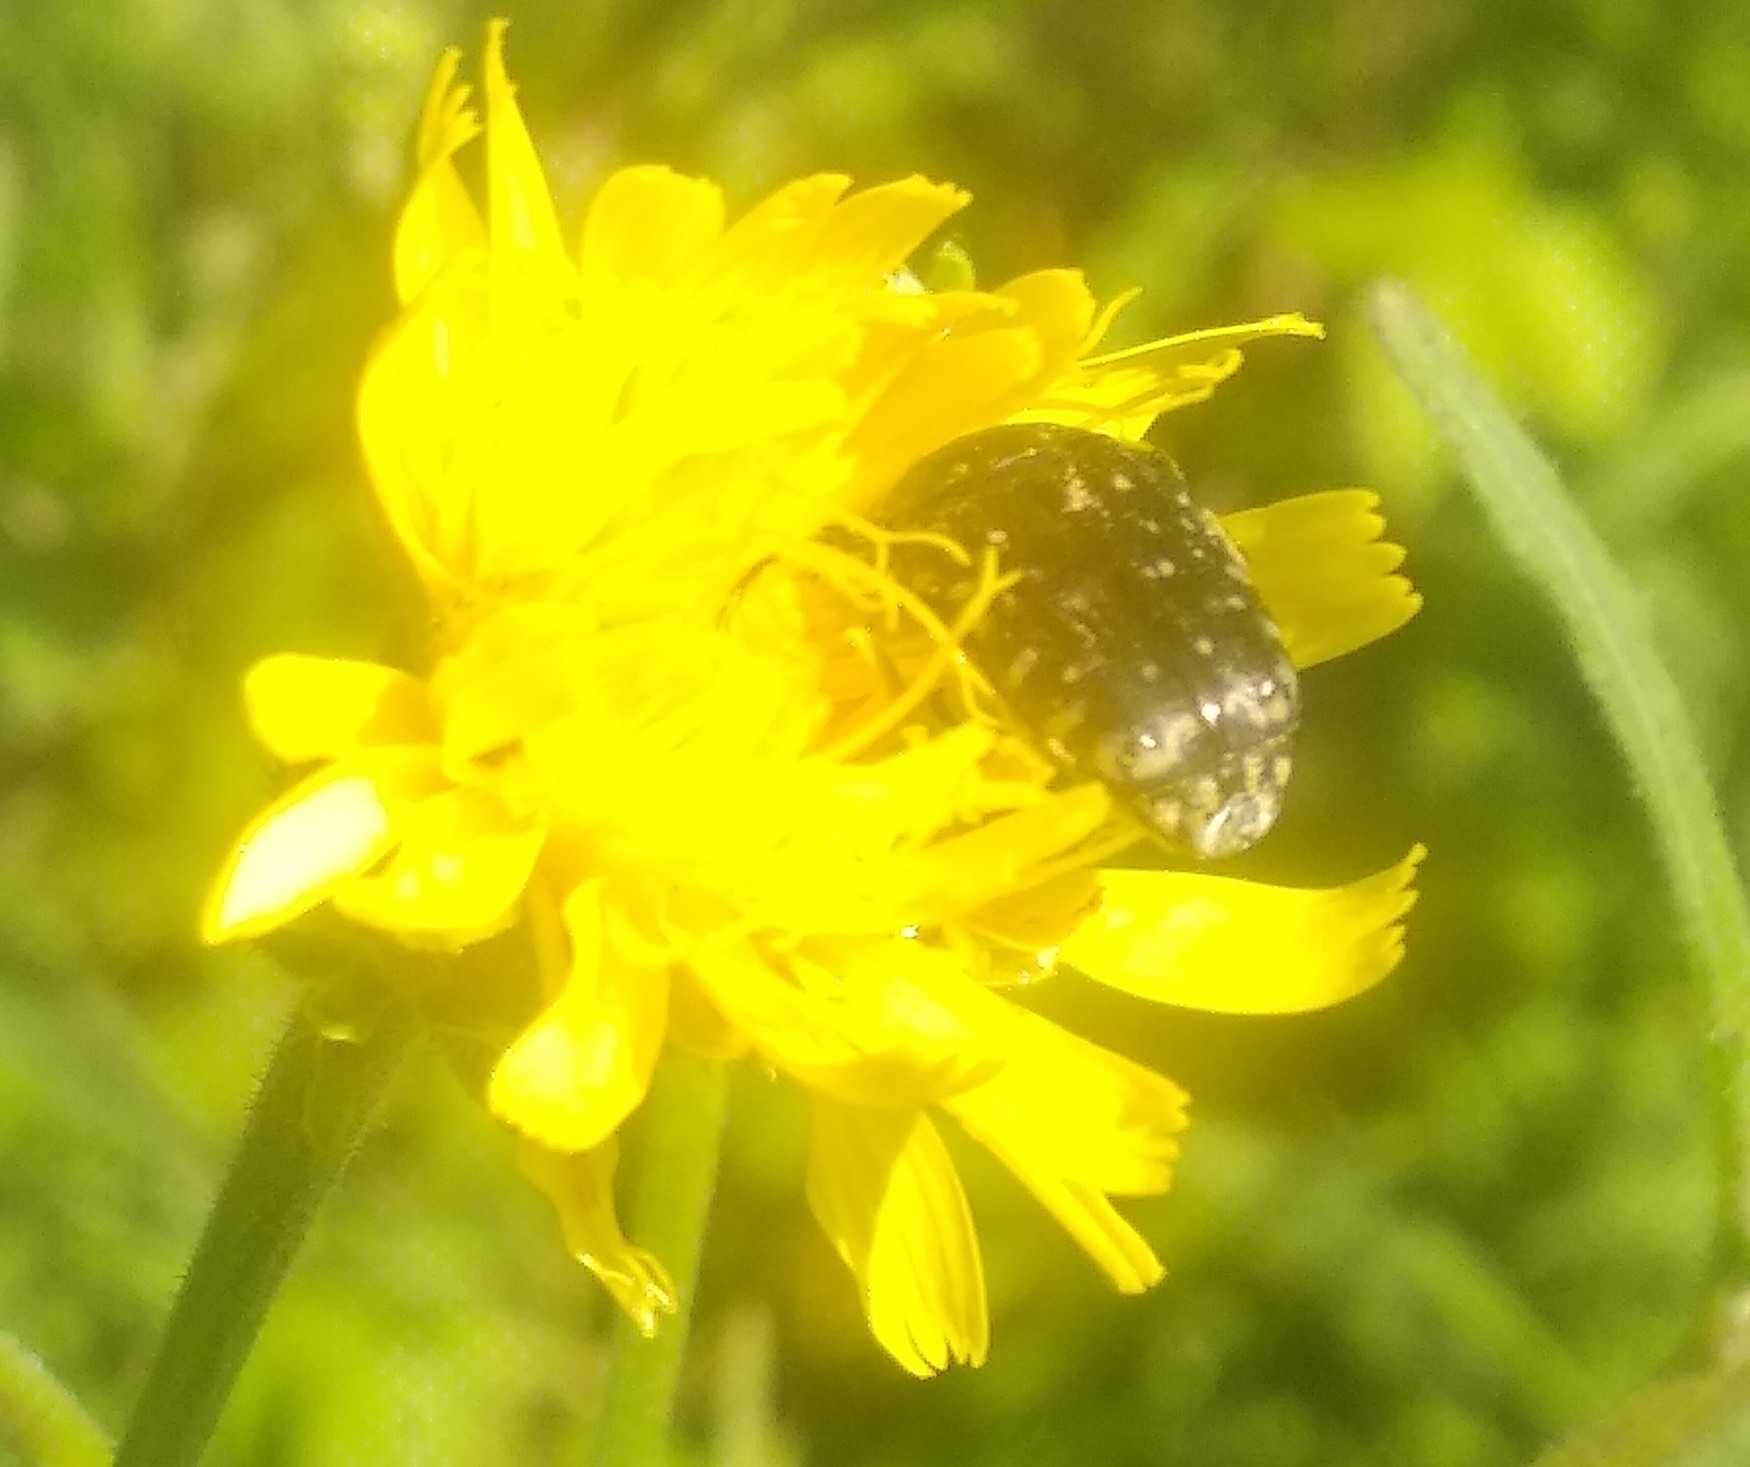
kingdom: Animalia
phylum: Arthropoda
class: Insecta
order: Coleoptera
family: Scarabaeidae
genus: Oxythyrea
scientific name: Oxythyrea funesta
